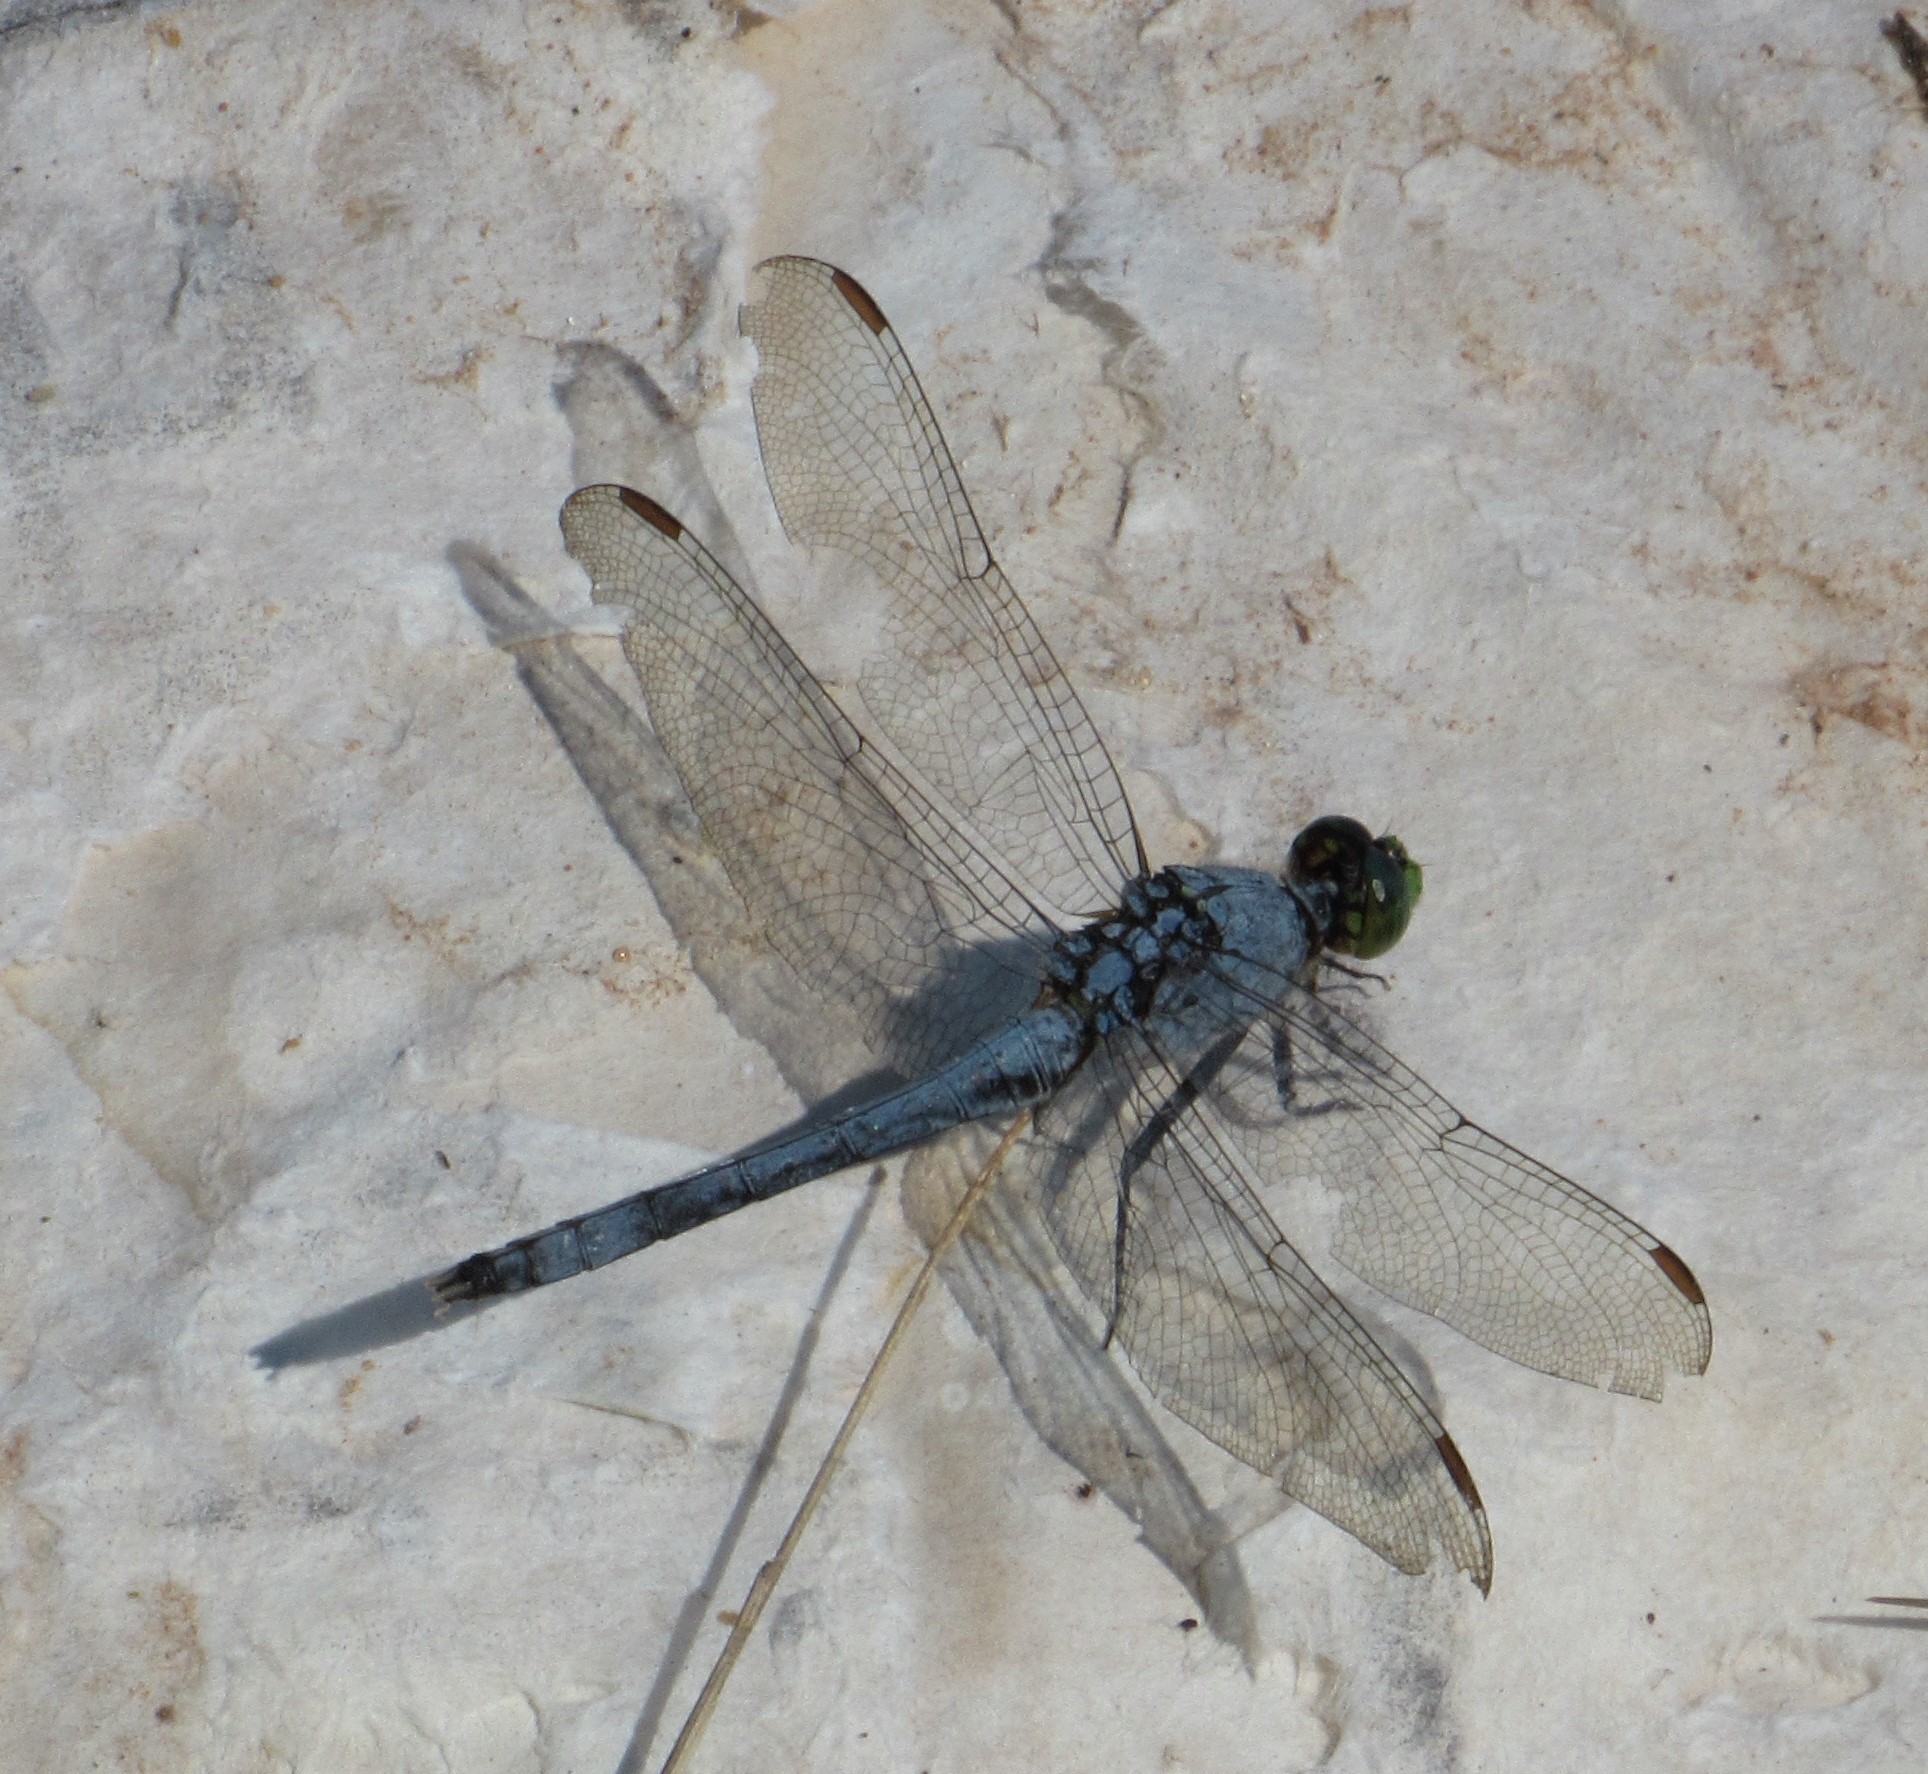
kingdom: Animalia
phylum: Arthropoda
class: Insecta
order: Odonata
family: Libellulidae
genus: Erythemis
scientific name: Erythemis simplicicollis
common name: Eastern pondhawk
